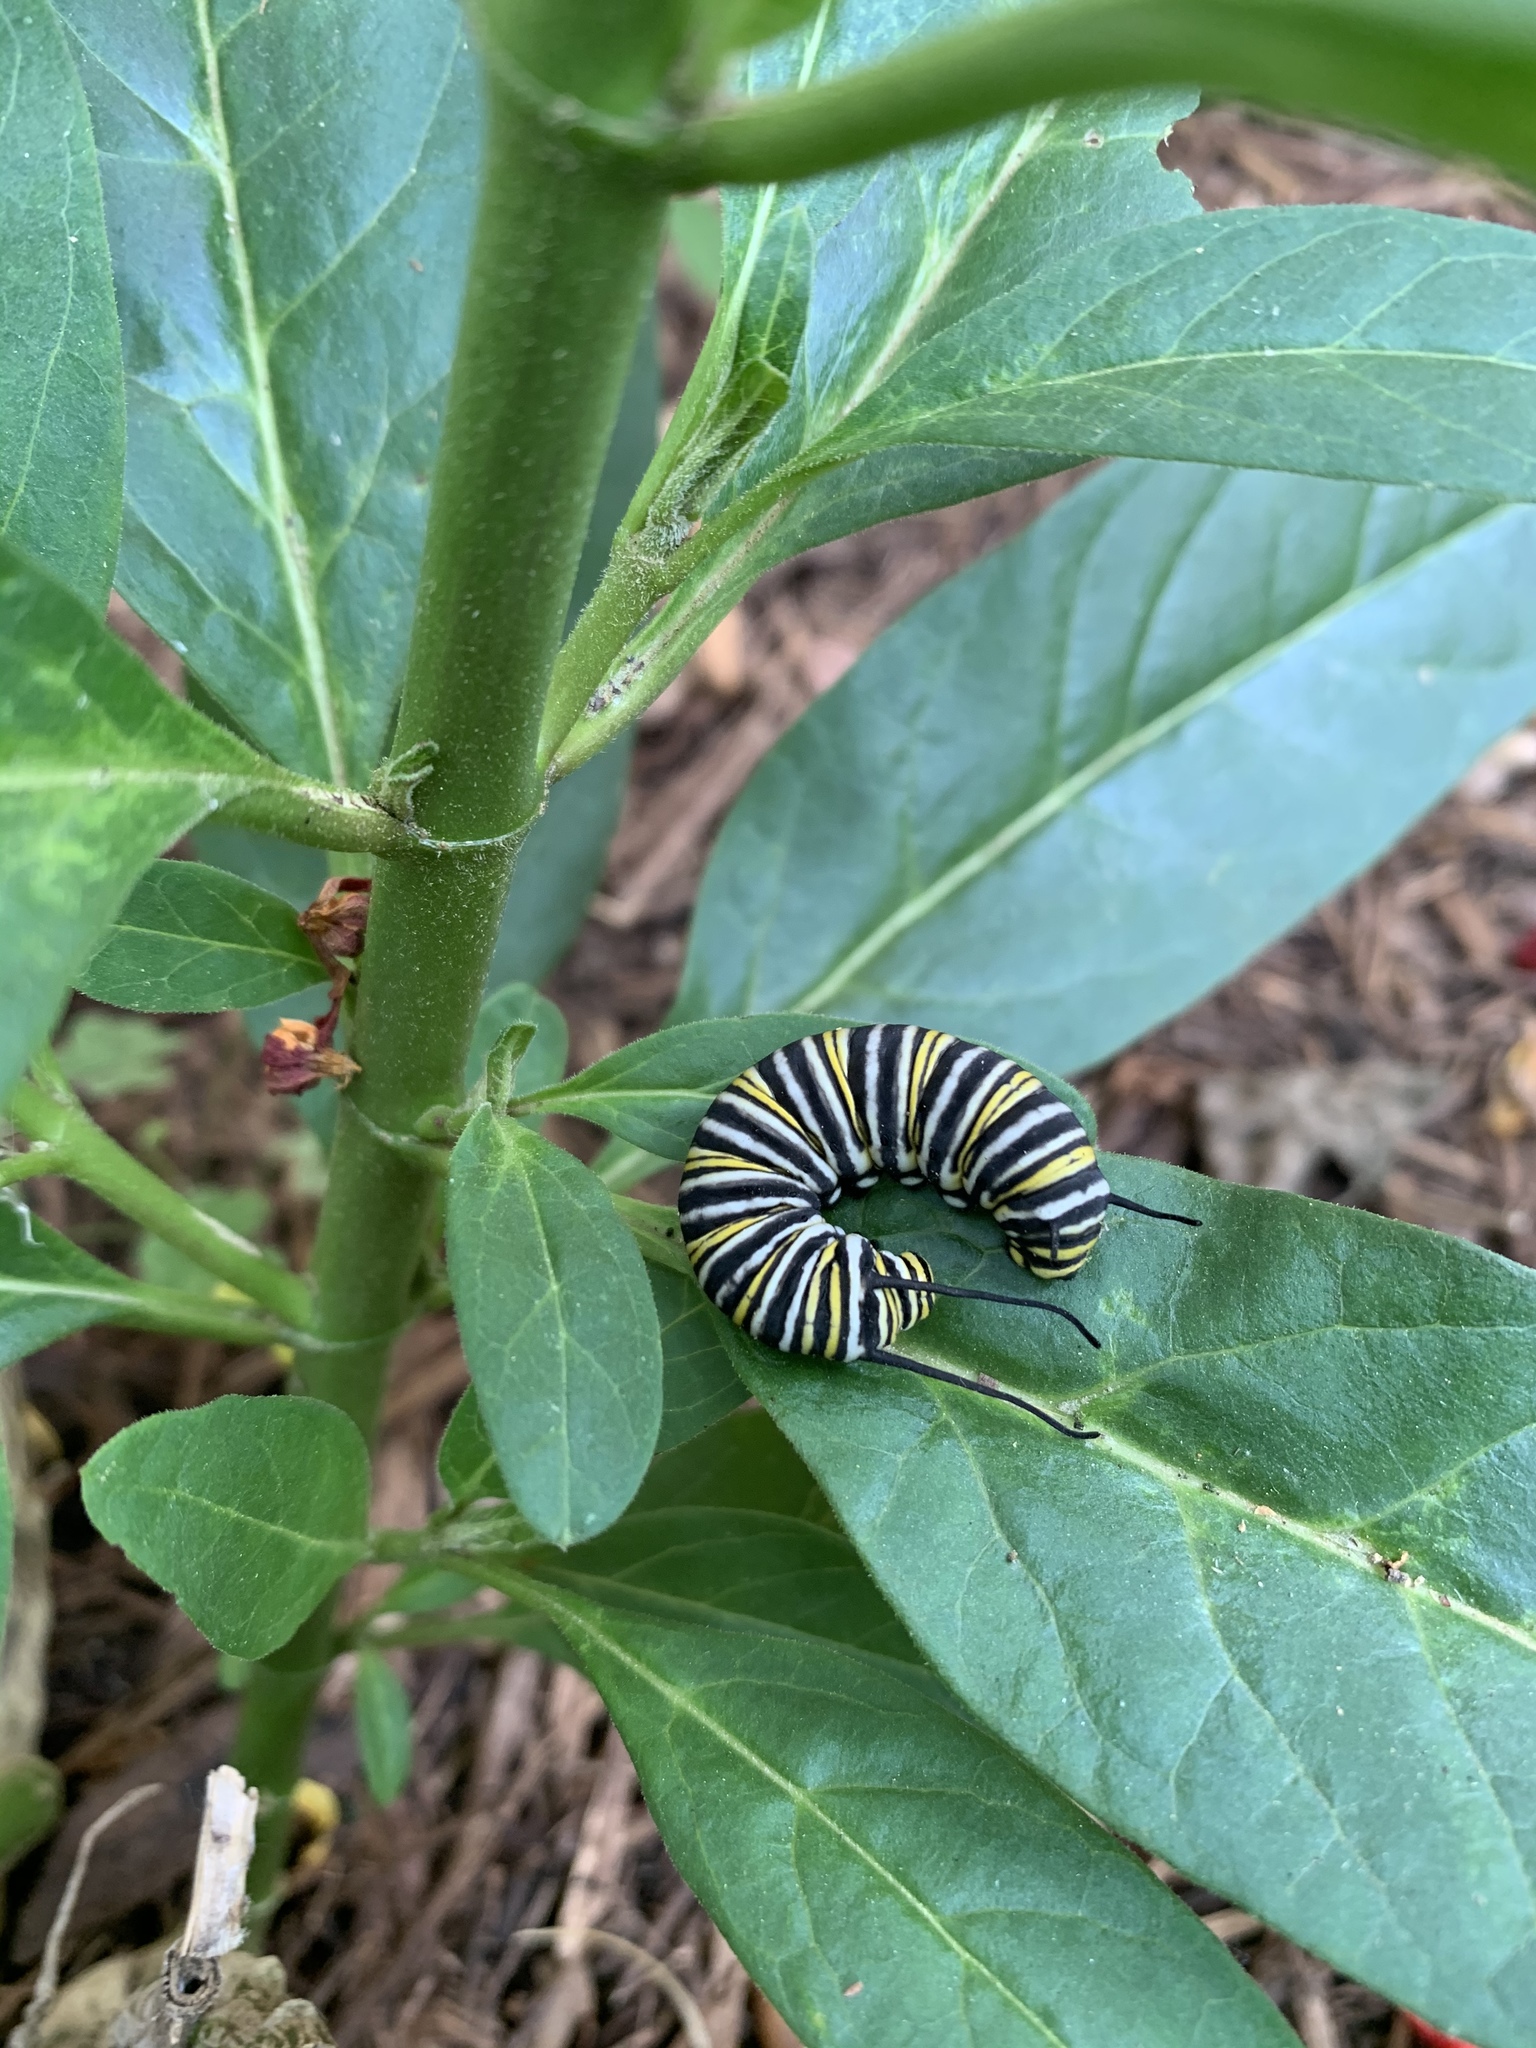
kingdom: Animalia
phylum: Arthropoda
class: Insecta
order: Lepidoptera
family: Nymphalidae
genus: Danaus
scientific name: Danaus plexippus
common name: Monarch
